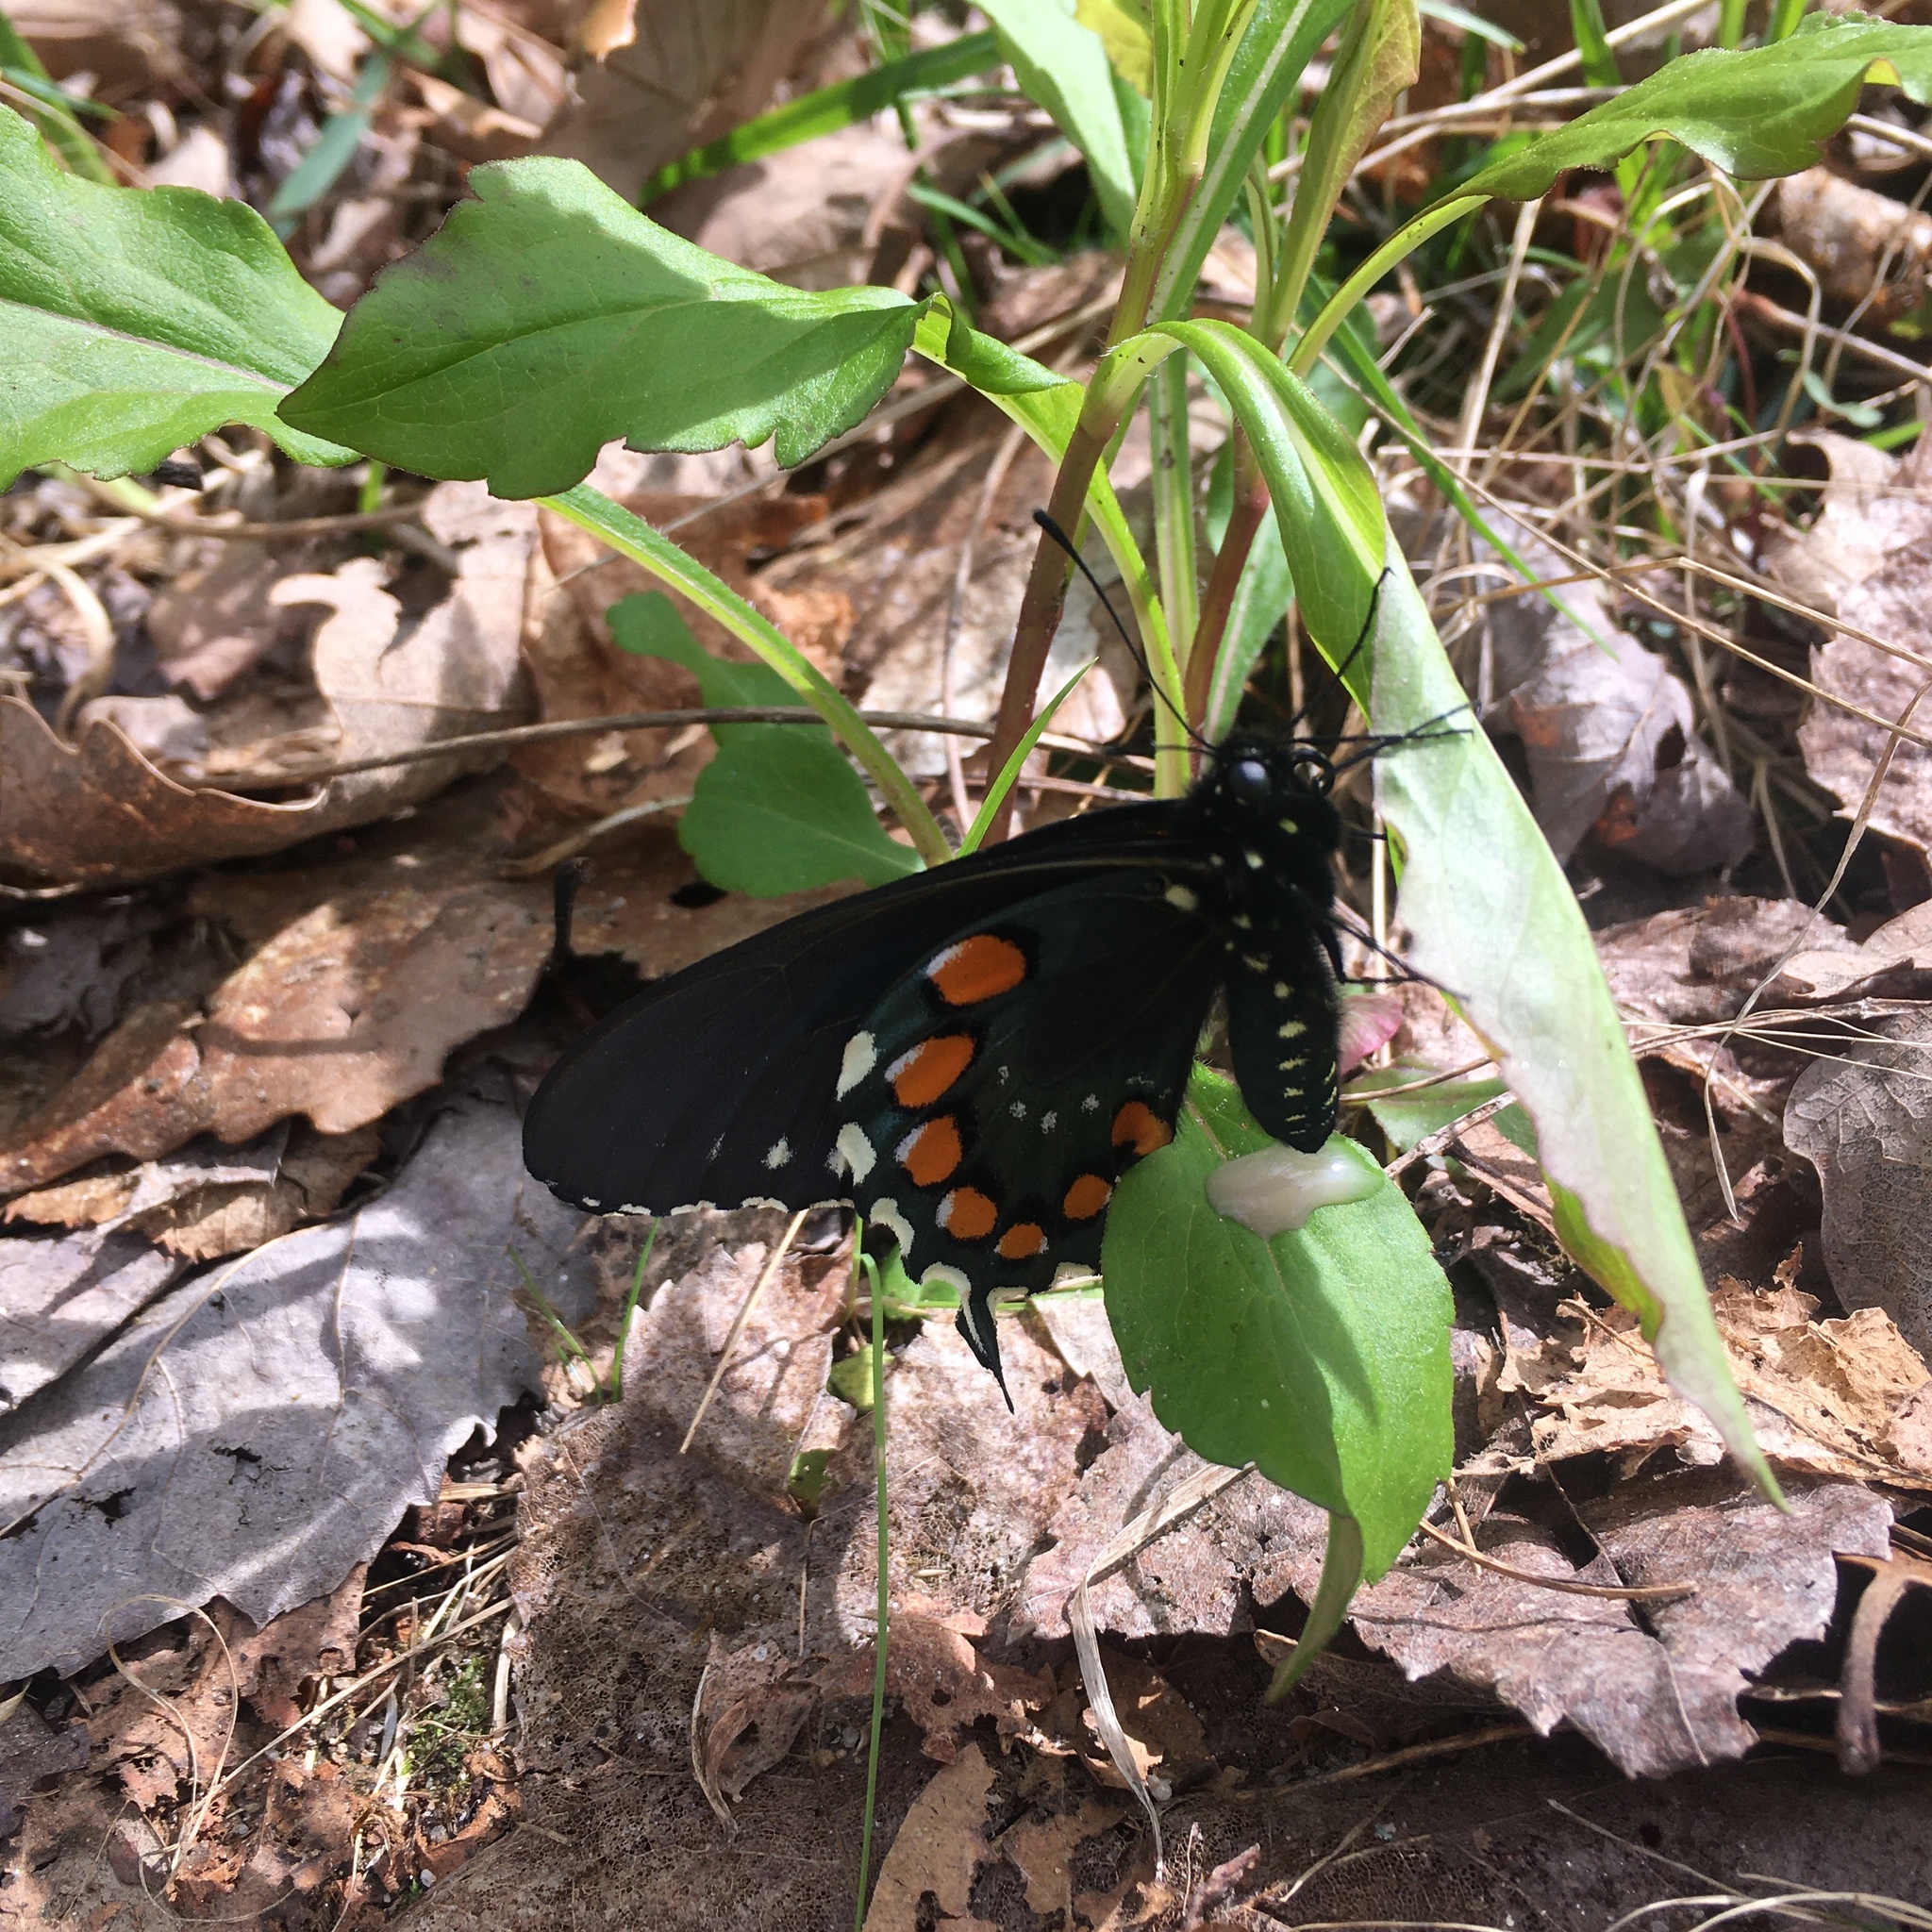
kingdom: Animalia
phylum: Arthropoda
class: Insecta
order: Lepidoptera
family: Papilionidae
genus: Battus
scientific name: Battus philenor
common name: Pipevine swallowtail
